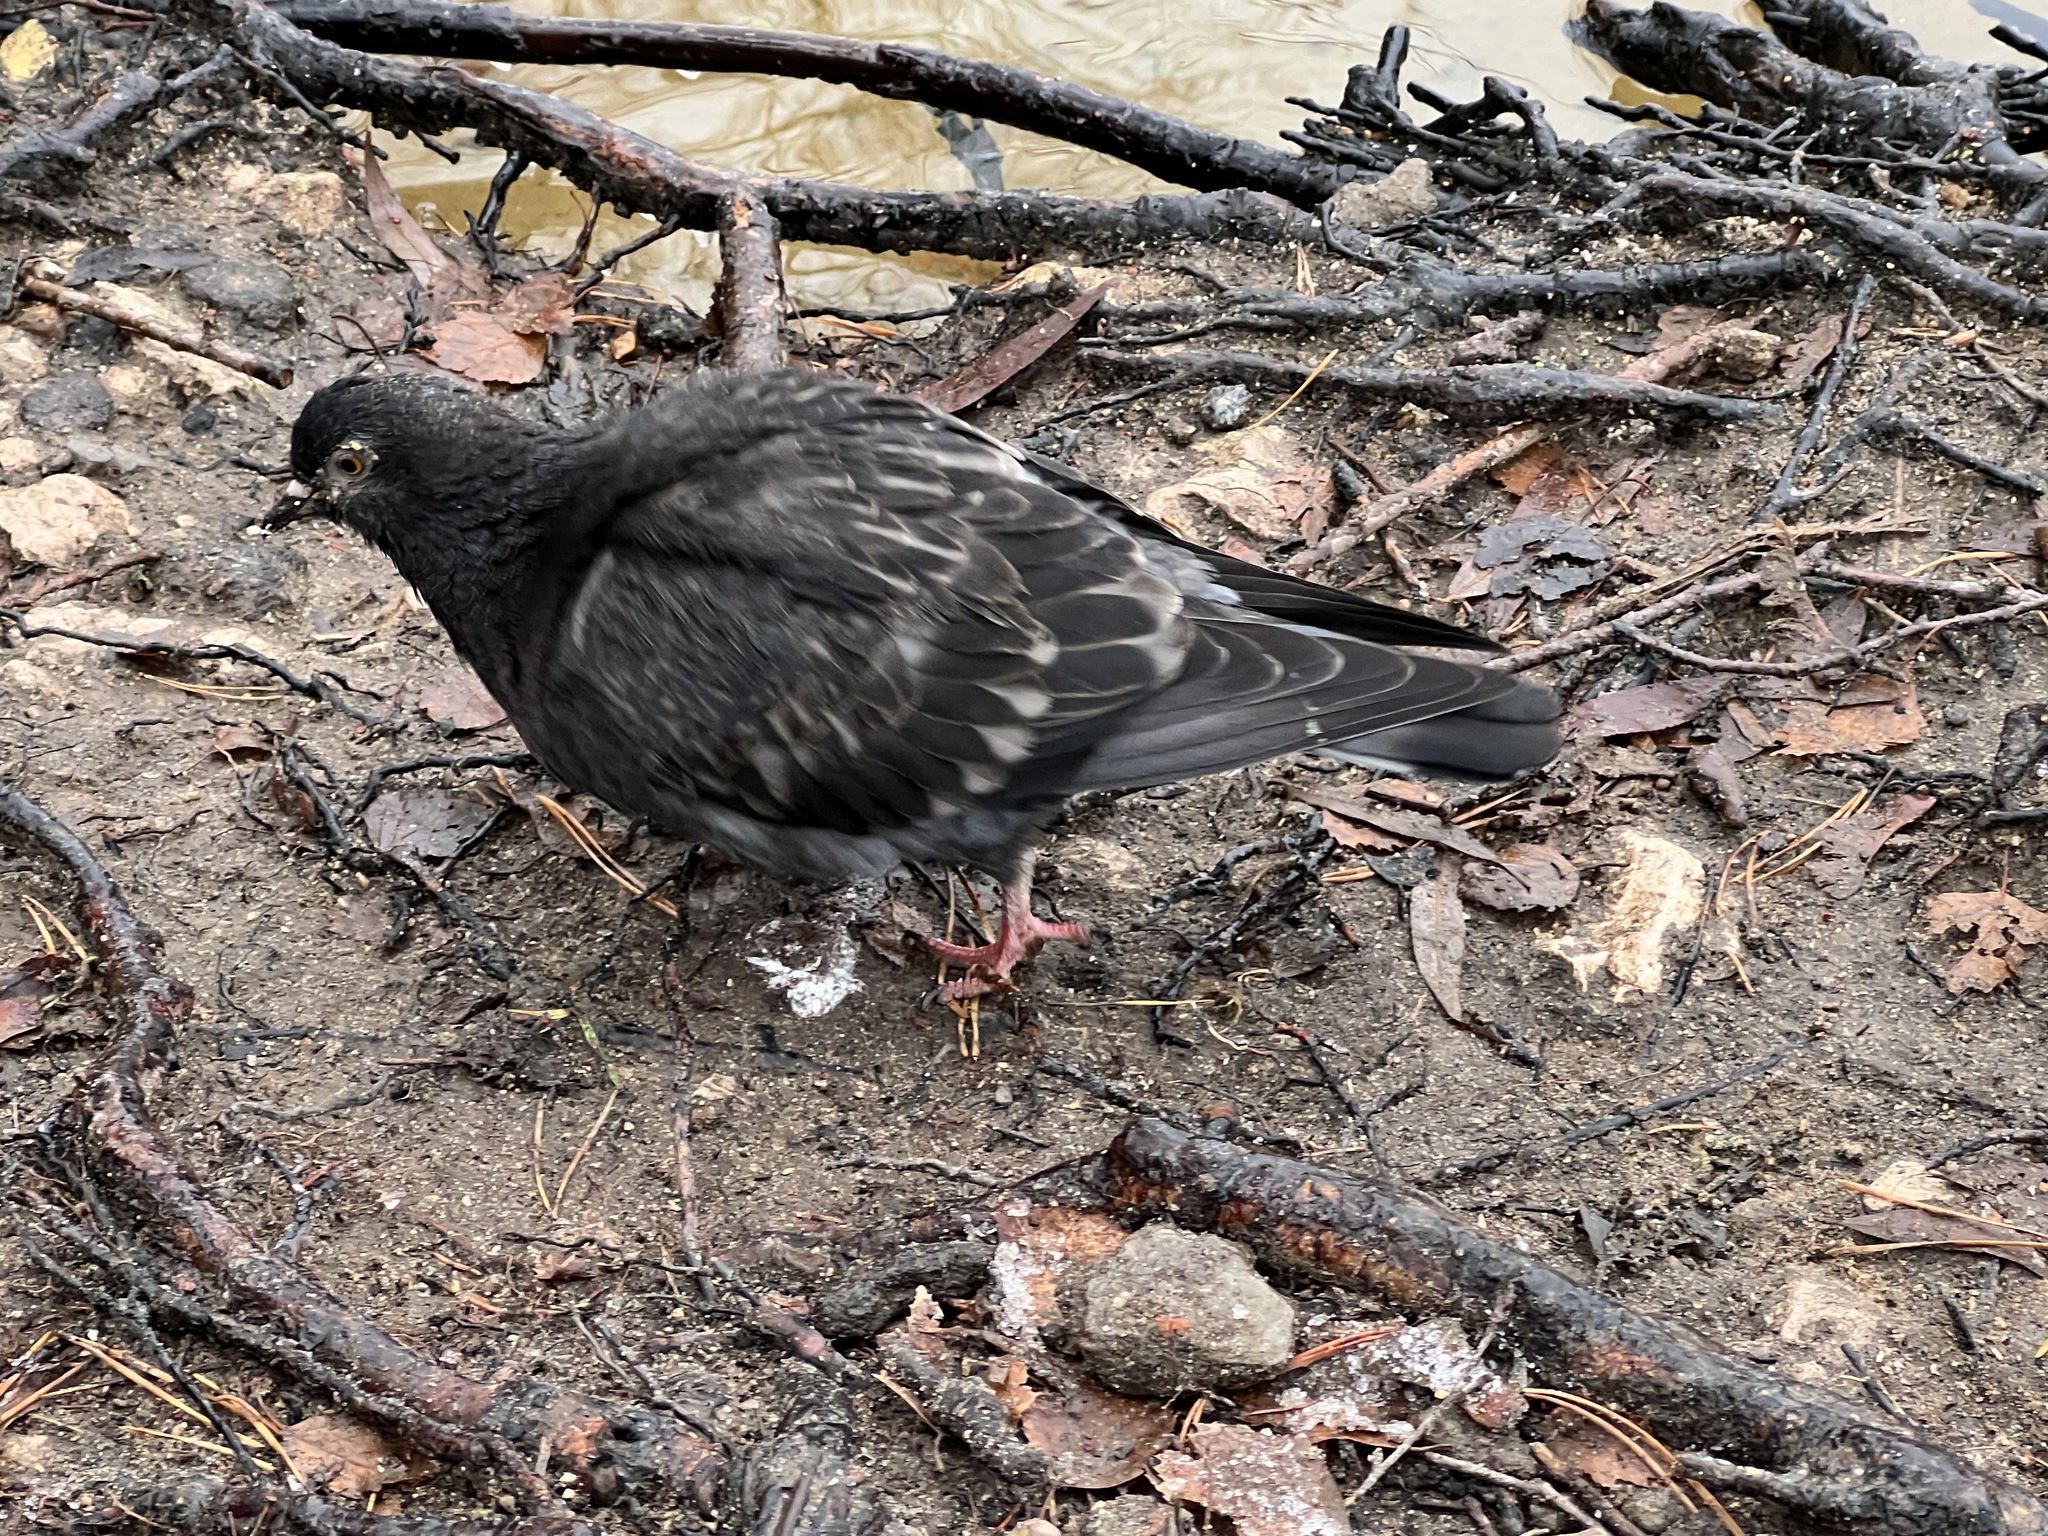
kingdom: Animalia
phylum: Chordata
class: Aves
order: Columbiformes
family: Columbidae
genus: Columba
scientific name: Columba livia
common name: Rock pigeon
